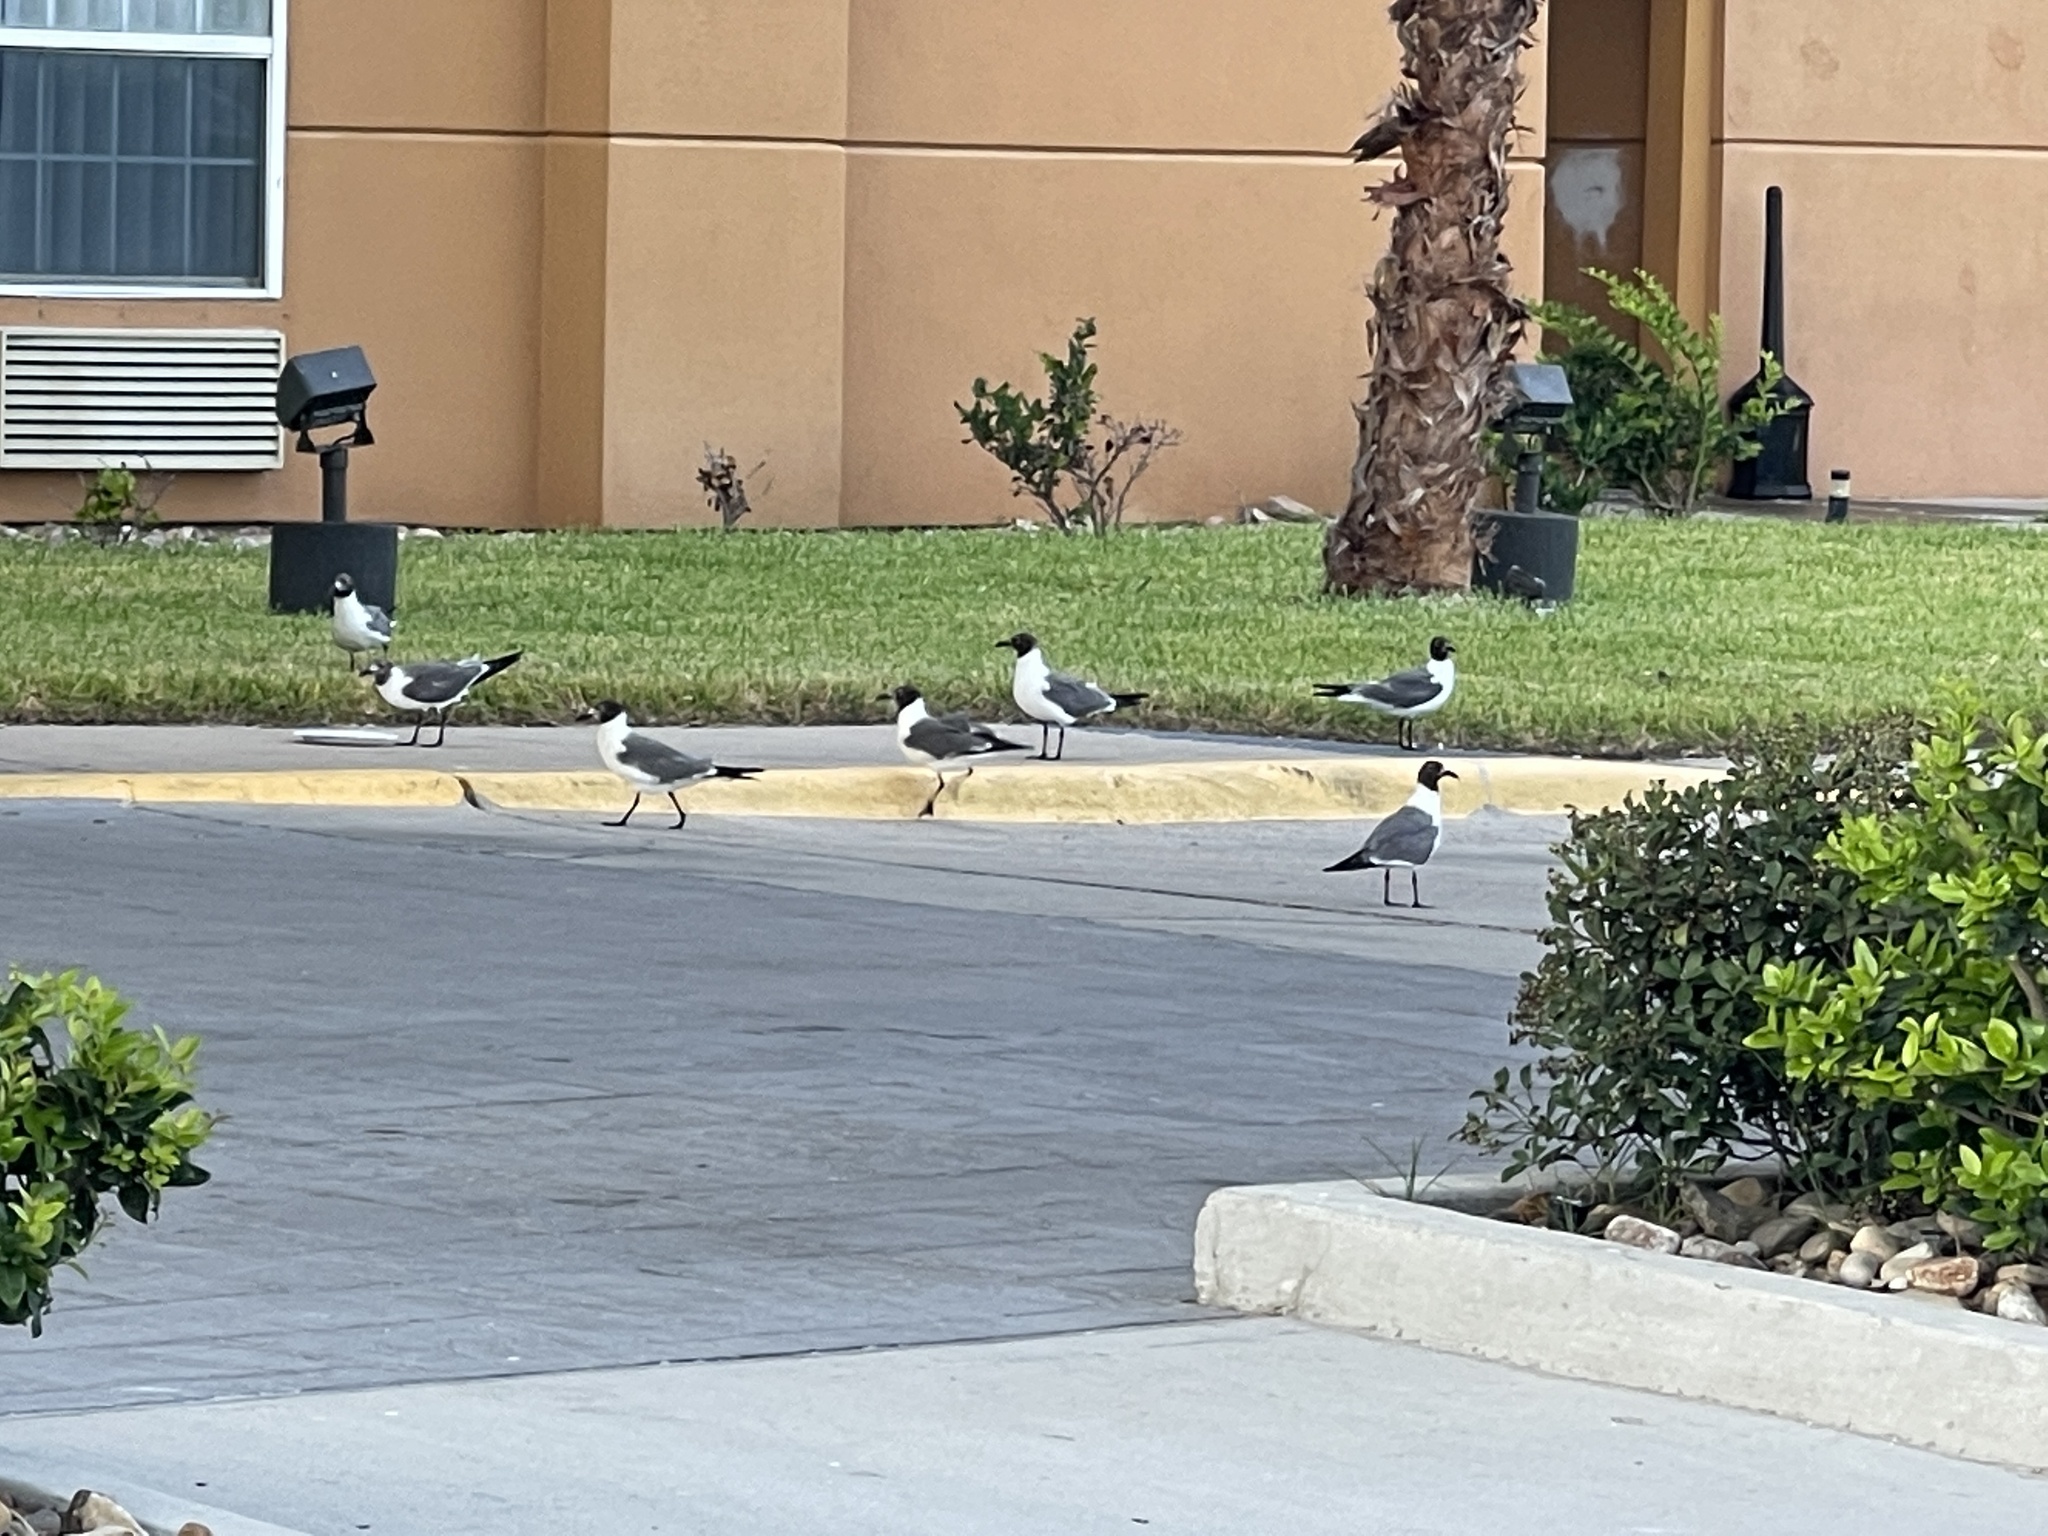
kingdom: Animalia
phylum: Chordata
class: Aves
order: Charadriiformes
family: Laridae
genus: Leucophaeus
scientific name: Leucophaeus atricilla
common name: Laughing gull
